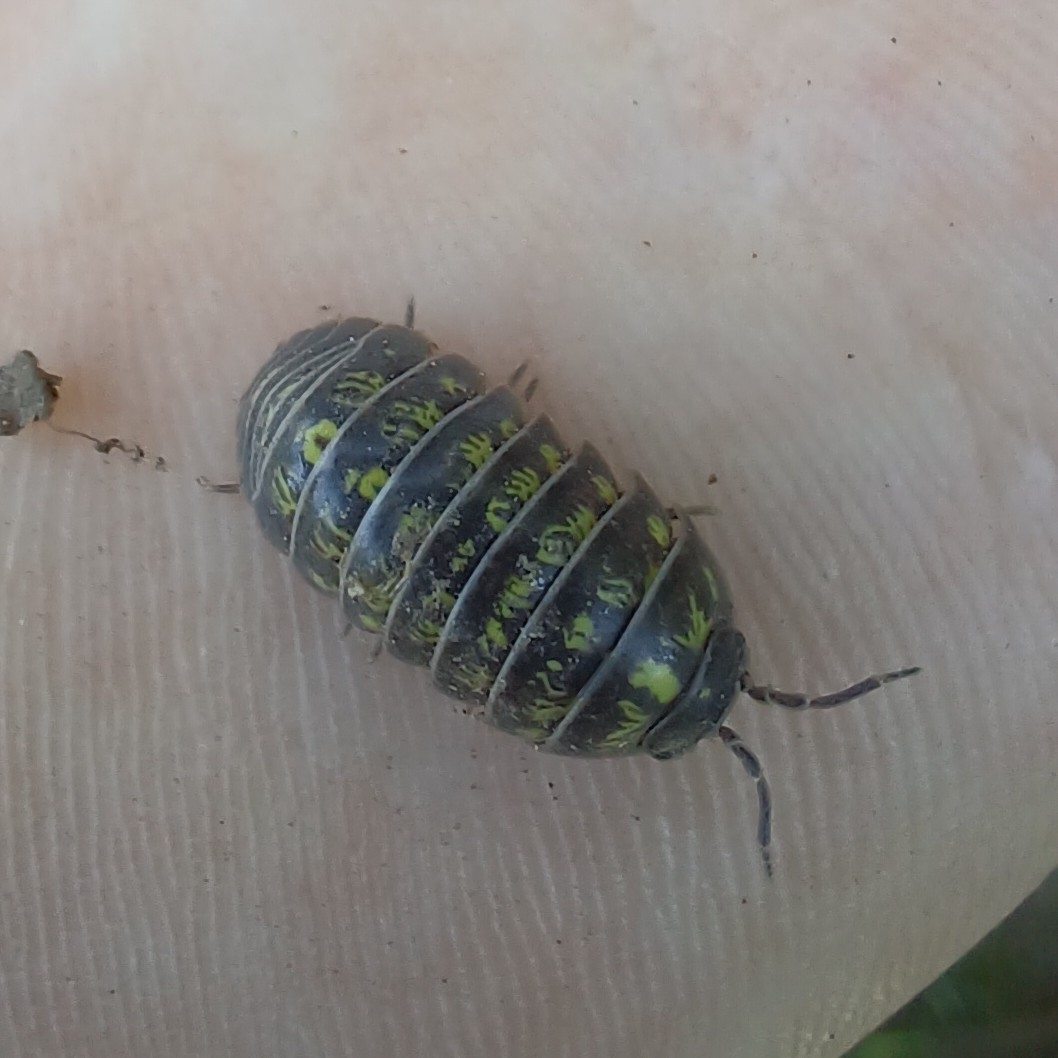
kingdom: Animalia
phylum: Arthropoda
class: Malacostraca
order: Isopoda
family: Armadillidiidae
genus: Armadillidium
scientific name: Armadillidium vulgare
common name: Common pill woodlouse
